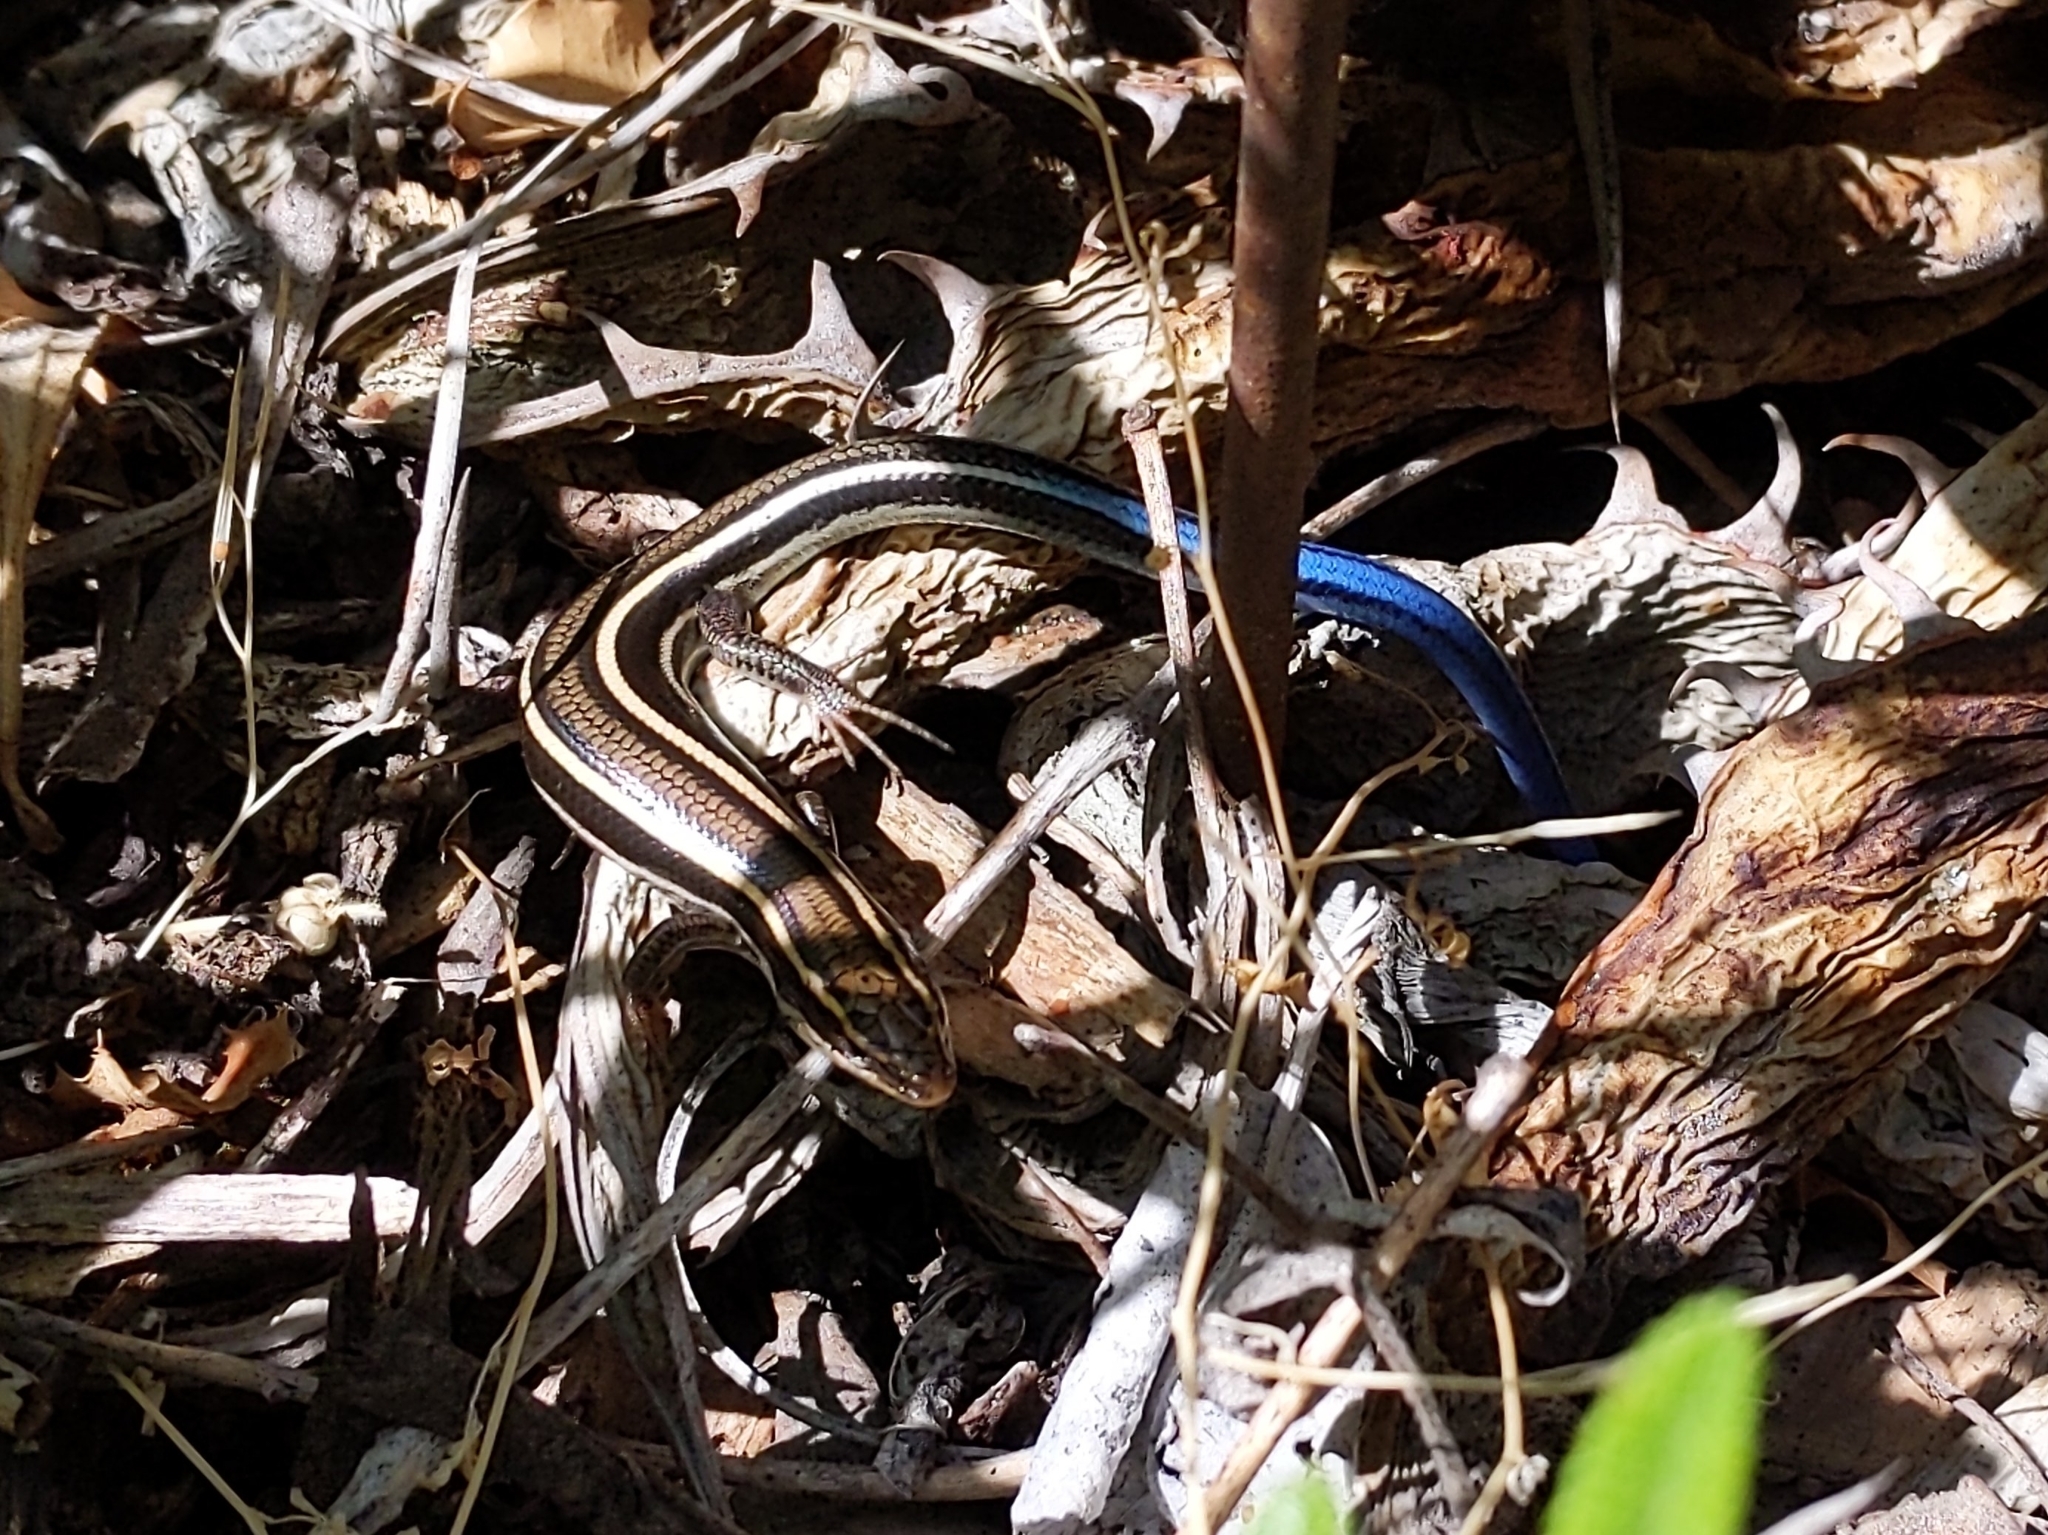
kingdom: Animalia
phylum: Chordata
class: Squamata
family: Scincidae
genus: Plestiodon
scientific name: Plestiodon skiltonianus
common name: Coronado island skink [interparietalis]
